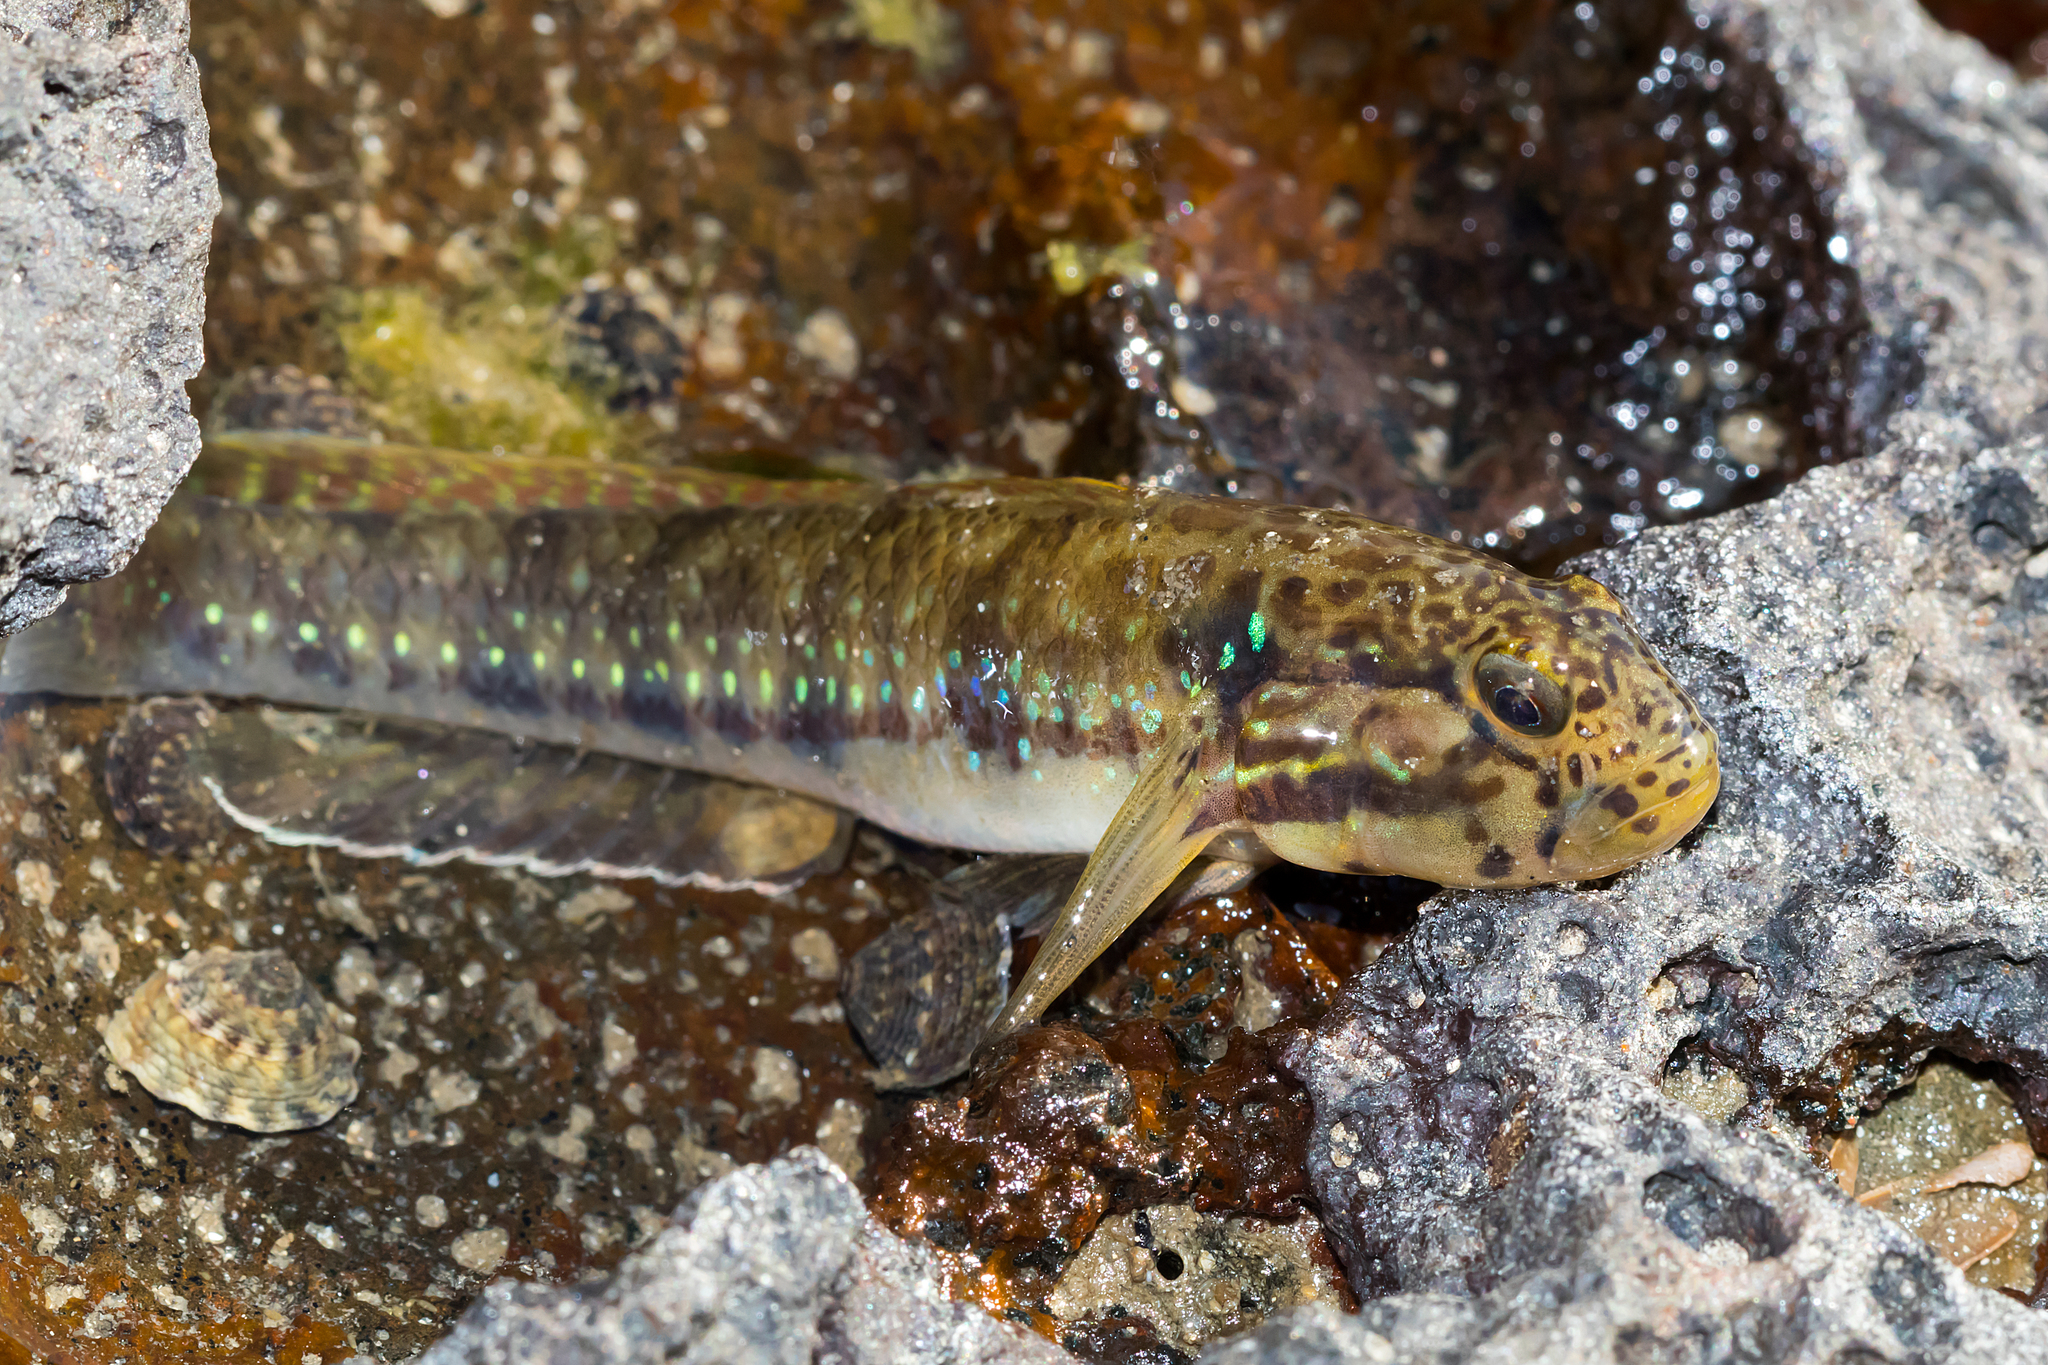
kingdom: Animalia
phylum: Chordata
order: Perciformes
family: Gobiidae
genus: Arenigobius
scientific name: Arenigobius frenatus
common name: Half-bridled goby
